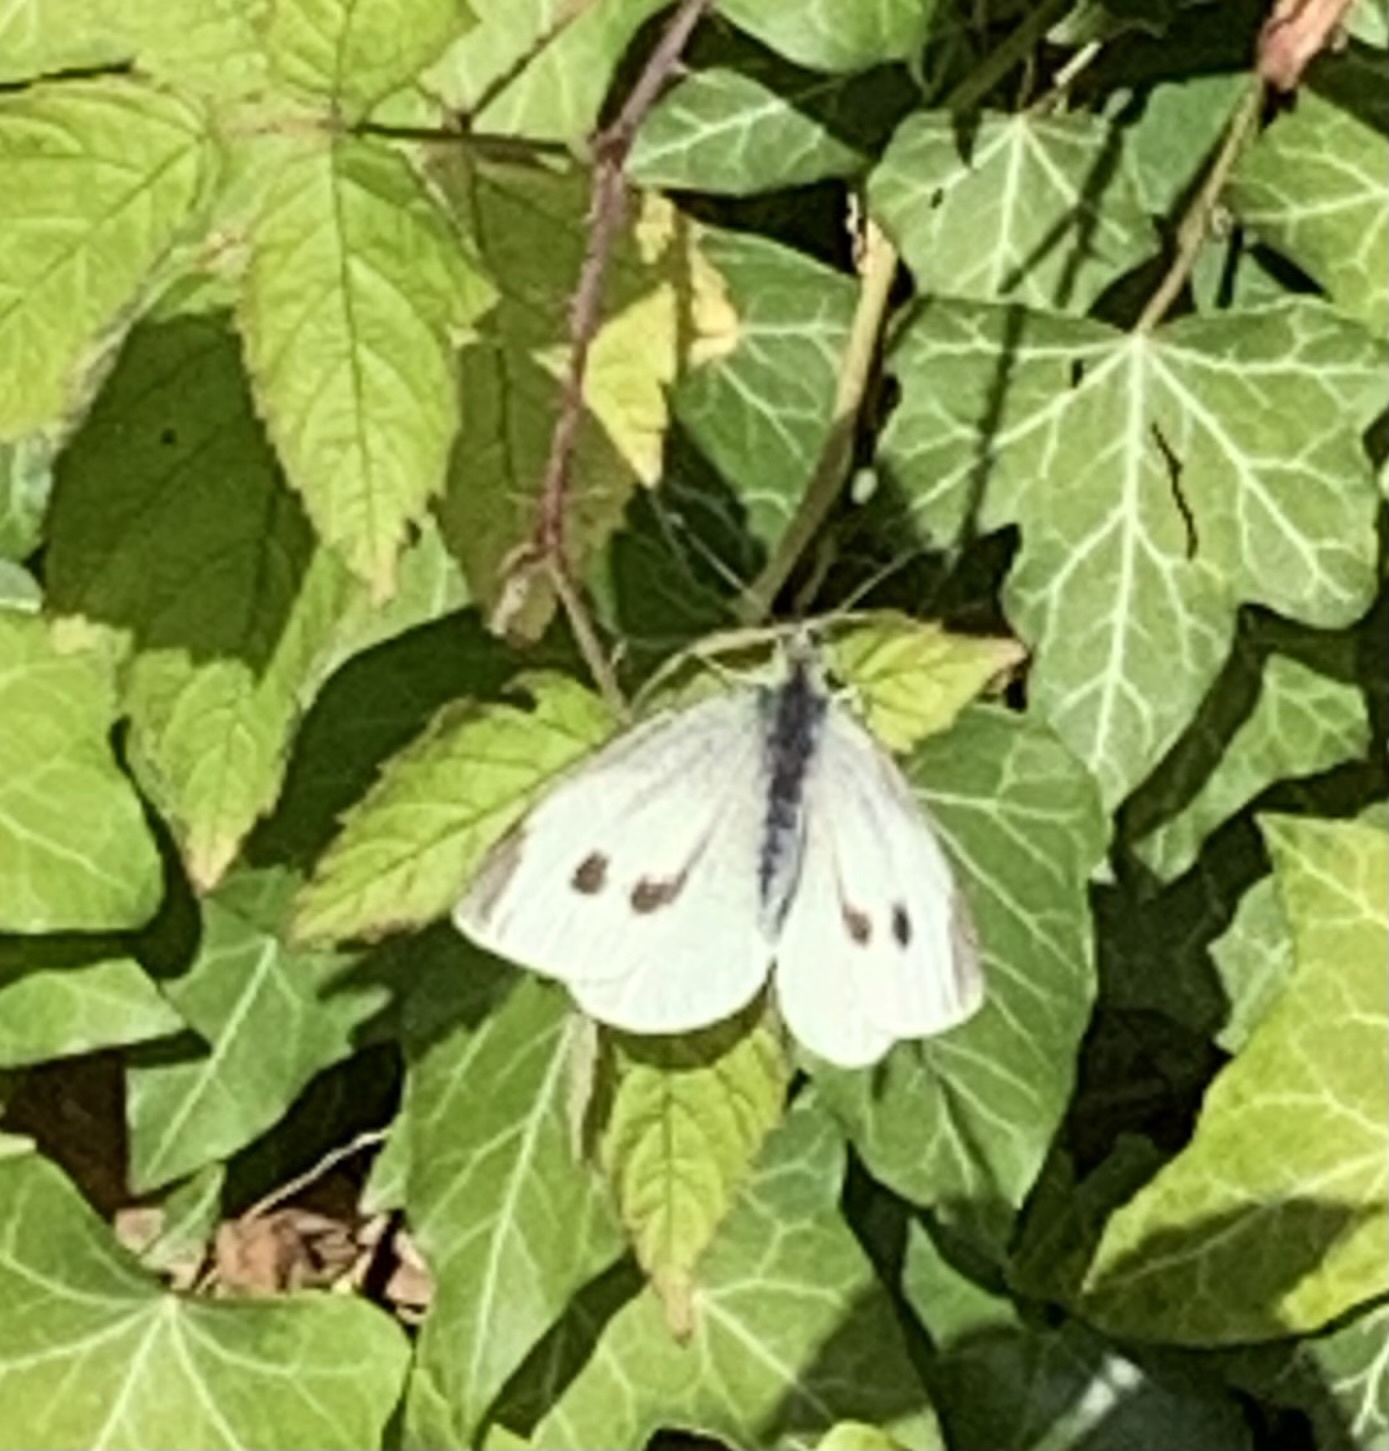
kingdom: Animalia
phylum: Arthropoda
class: Insecta
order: Lepidoptera
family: Pieridae
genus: Pieris
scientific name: Pieris rapae
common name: Small white
